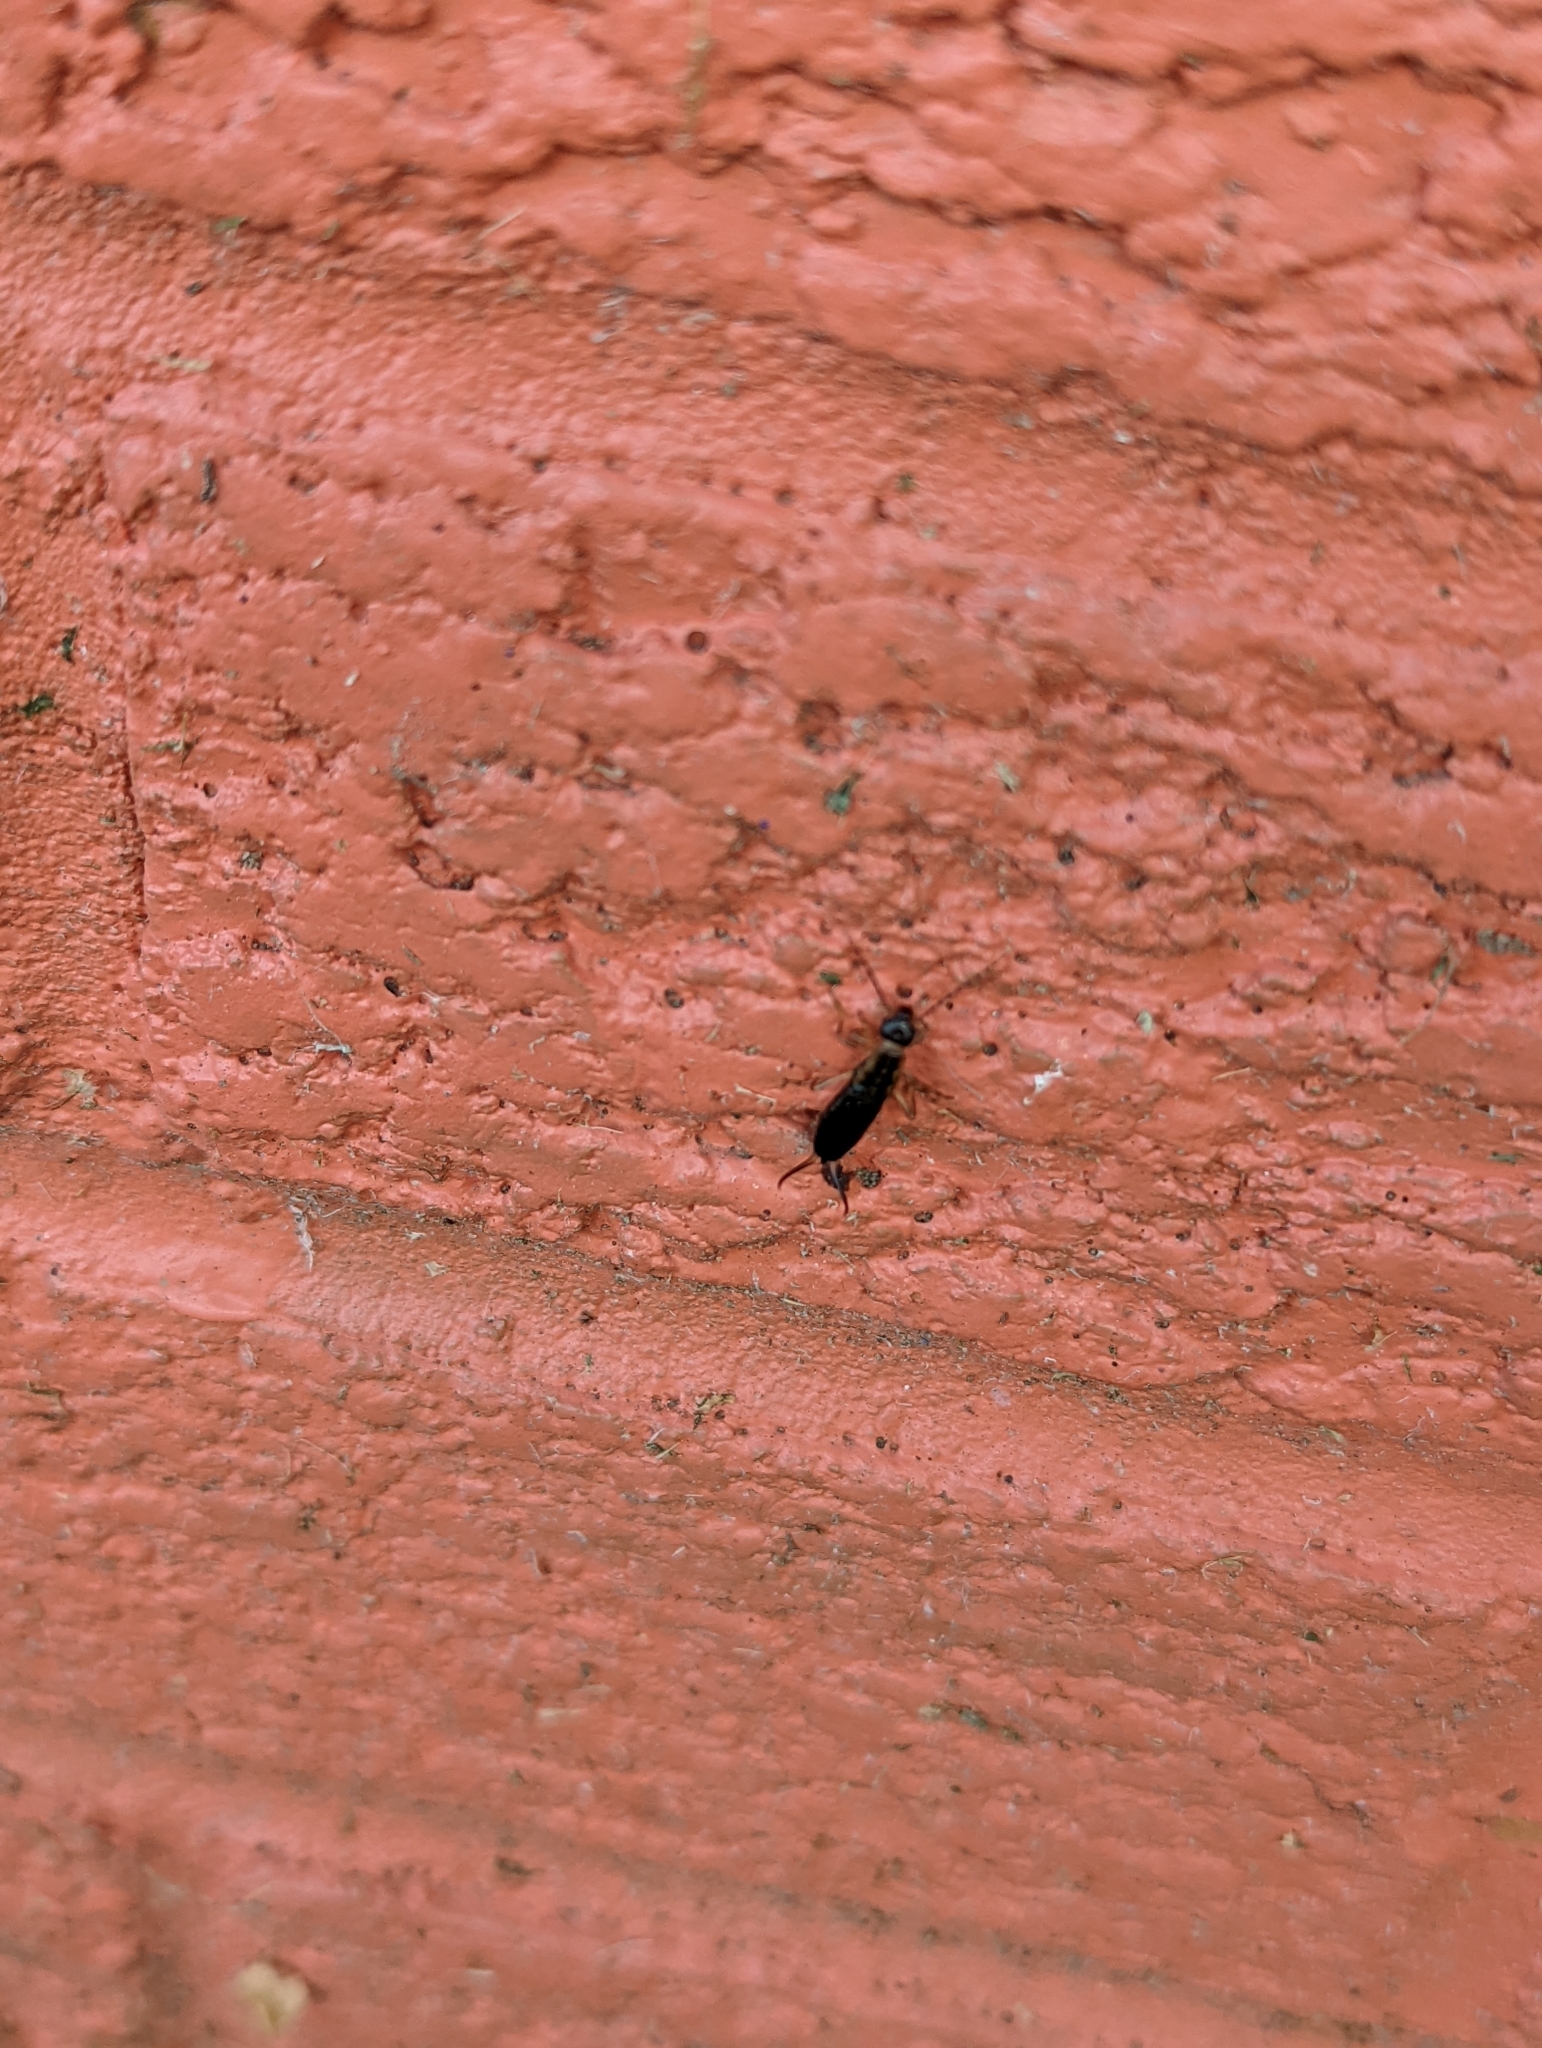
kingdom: Animalia
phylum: Arthropoda
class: Insecta
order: Dermaptera
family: Forficulidae
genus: Forficula
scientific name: Forficula
